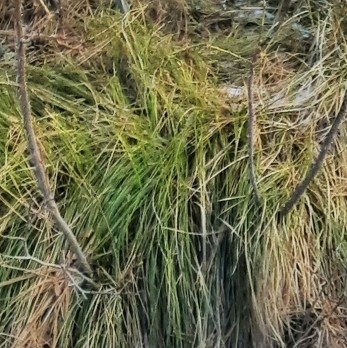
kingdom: Plantae
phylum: Tracheophyta
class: Liliopsida
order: Poales
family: Cyperaceae
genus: Carex
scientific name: Carex geyeri
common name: Elk sedge
